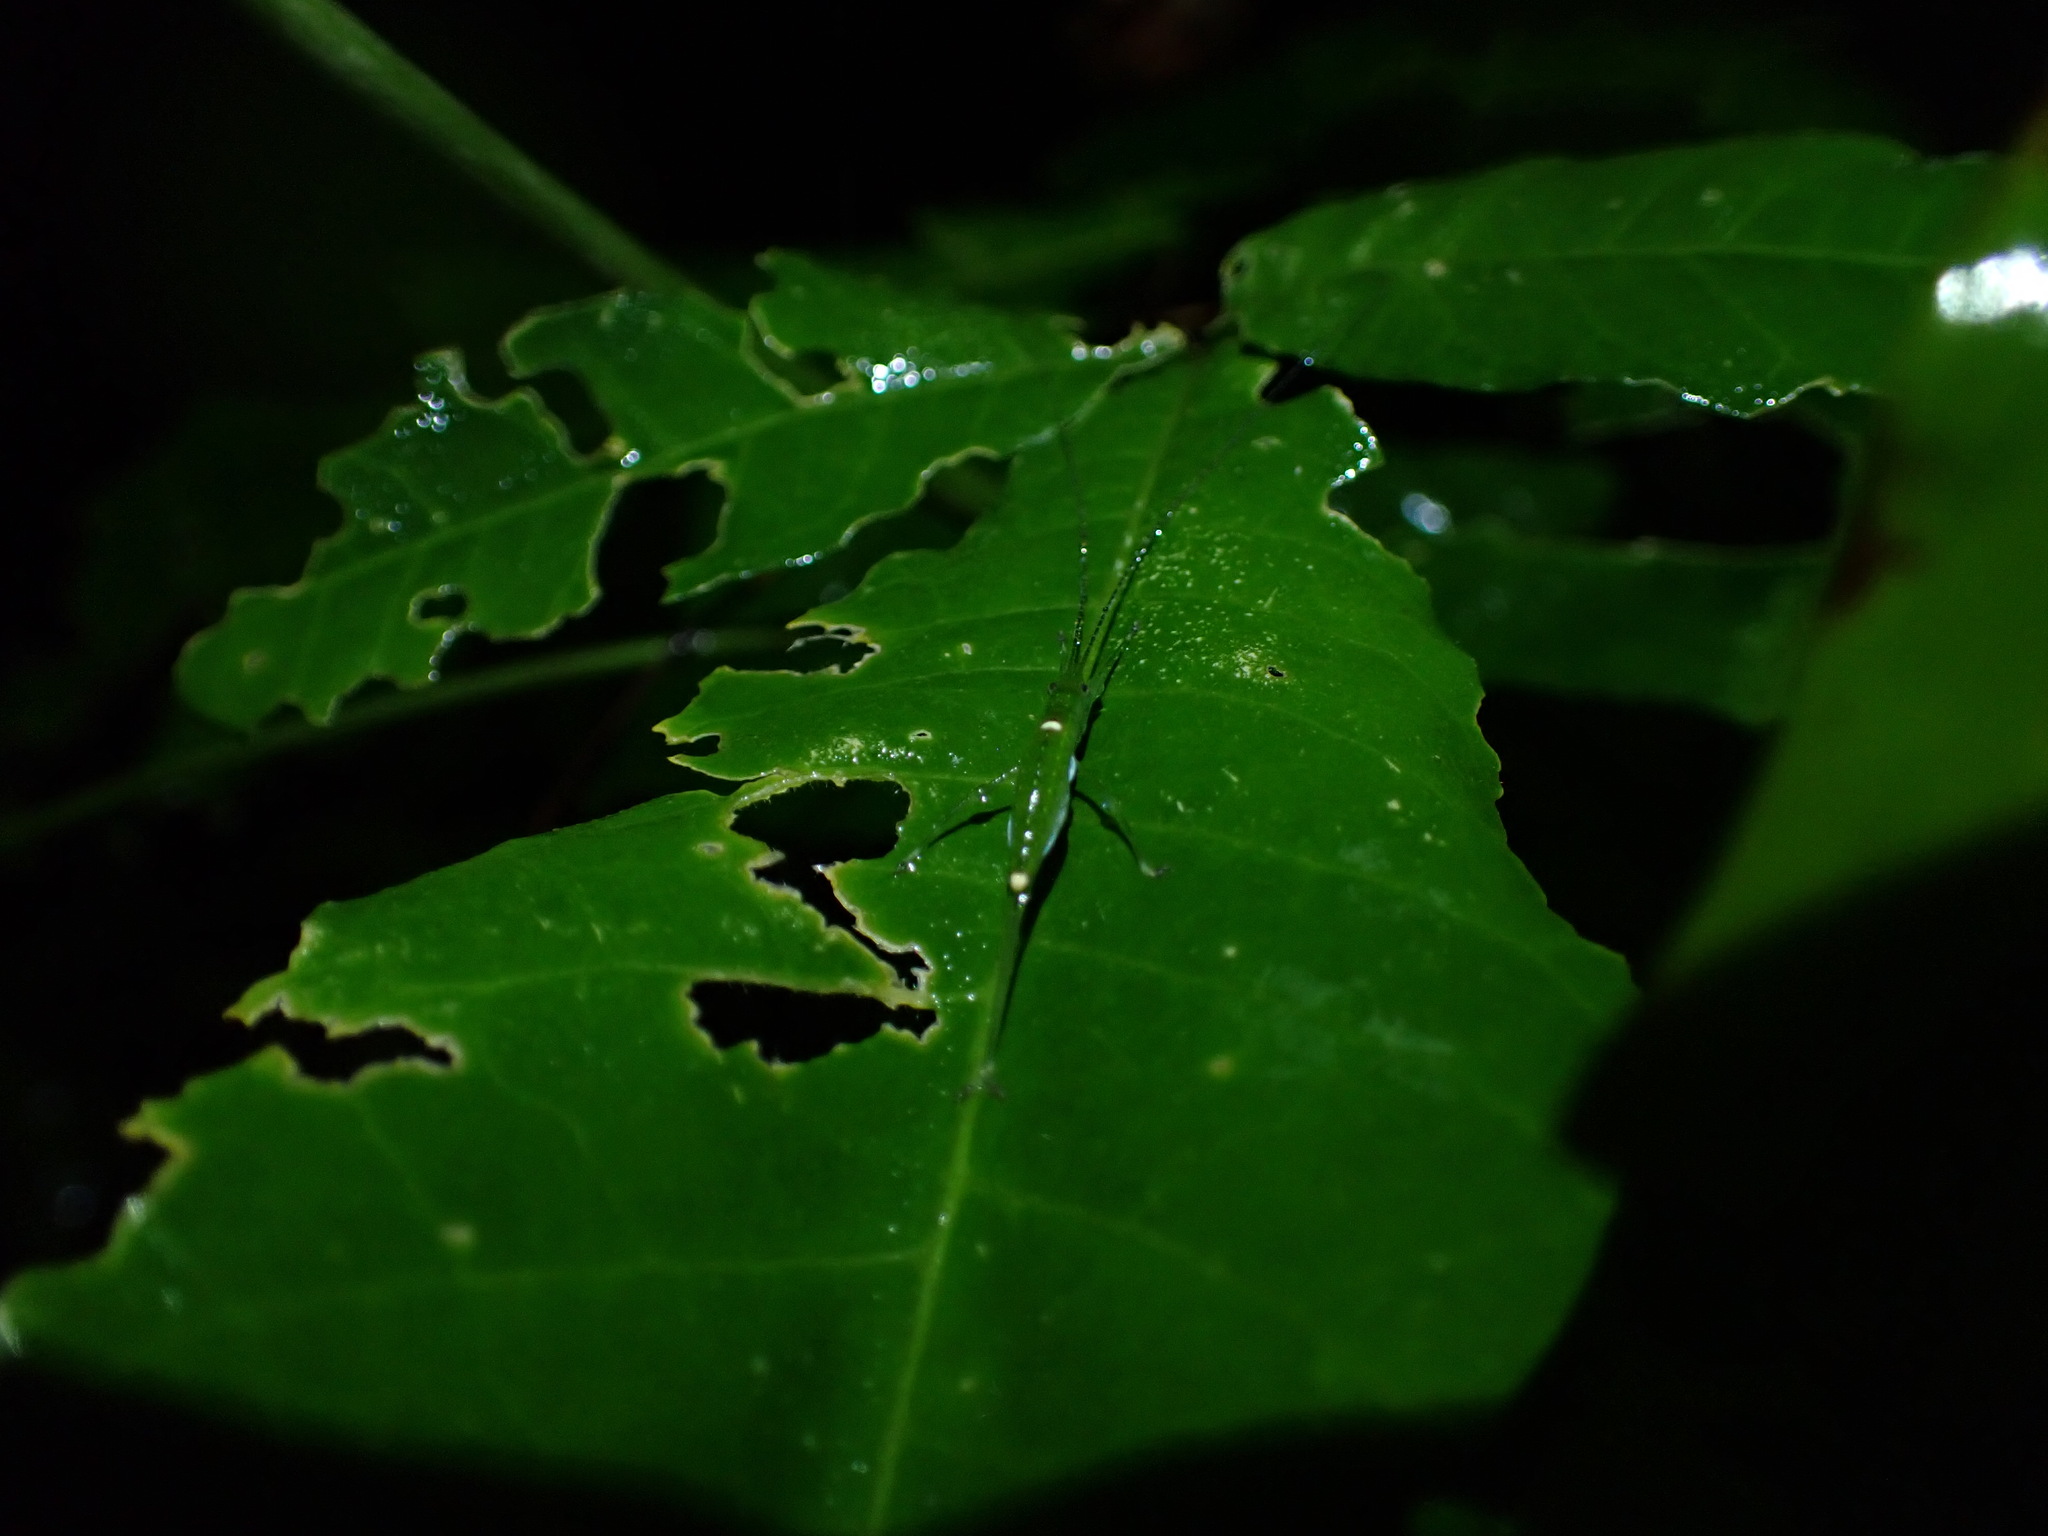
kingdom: Animalia
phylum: Arthropoda
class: Insecta
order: Orthoptera
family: Tettigoniidae
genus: Chloracantha
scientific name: Chloracantha angularis
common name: Angular-winged snub-nosed katydid
